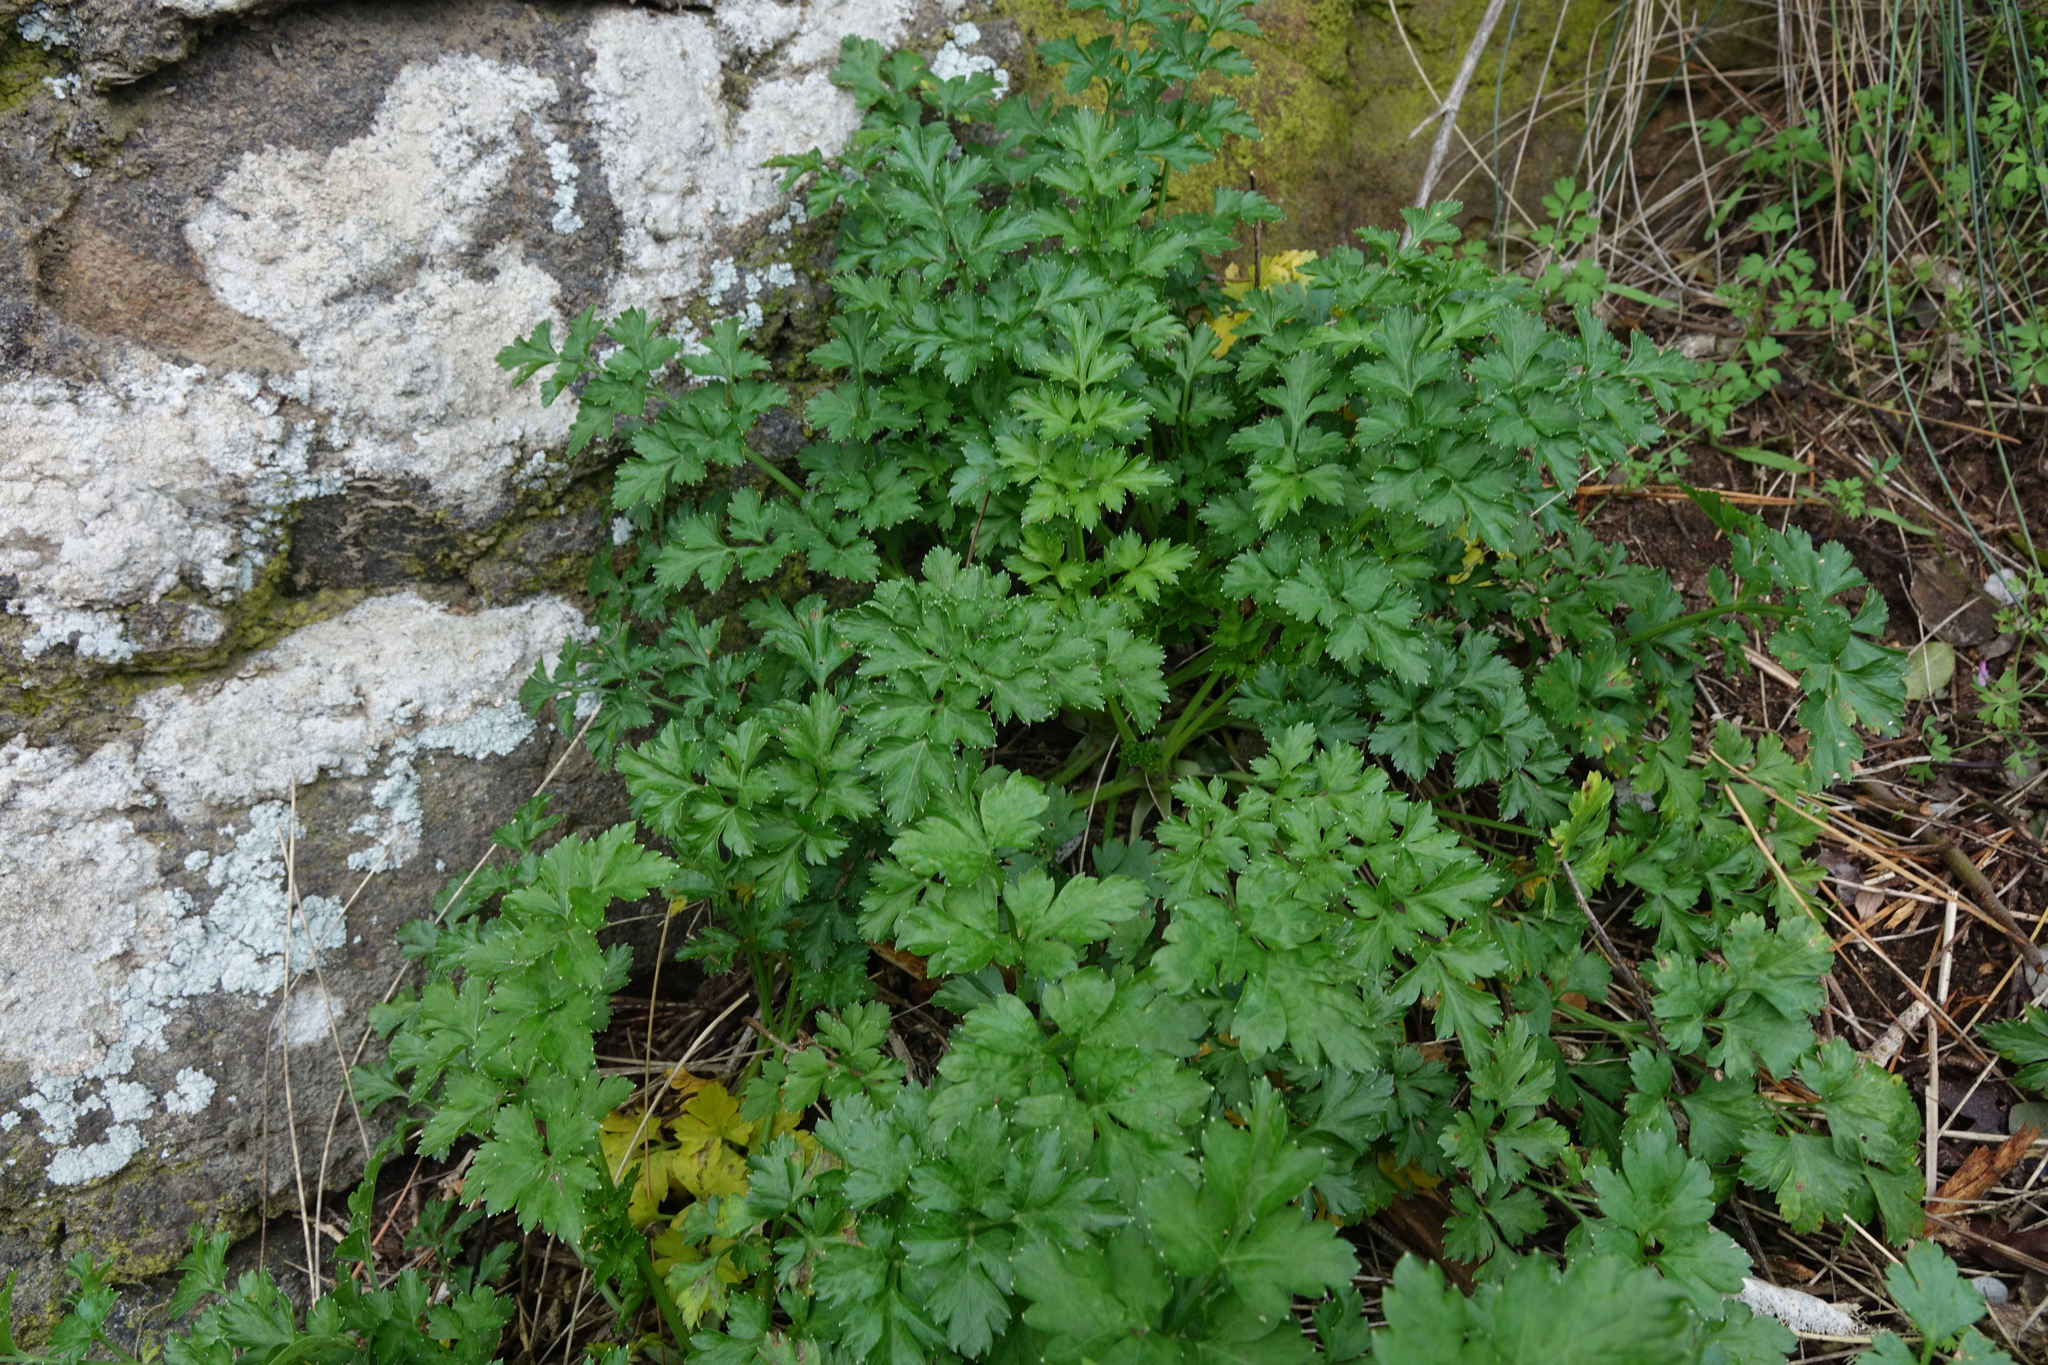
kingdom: Plantae
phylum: Tracheophyta
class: Magnoliopsida
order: Apiales
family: Apiaceae
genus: Petroselinum
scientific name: Petroselinum crispum
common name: Parsley
